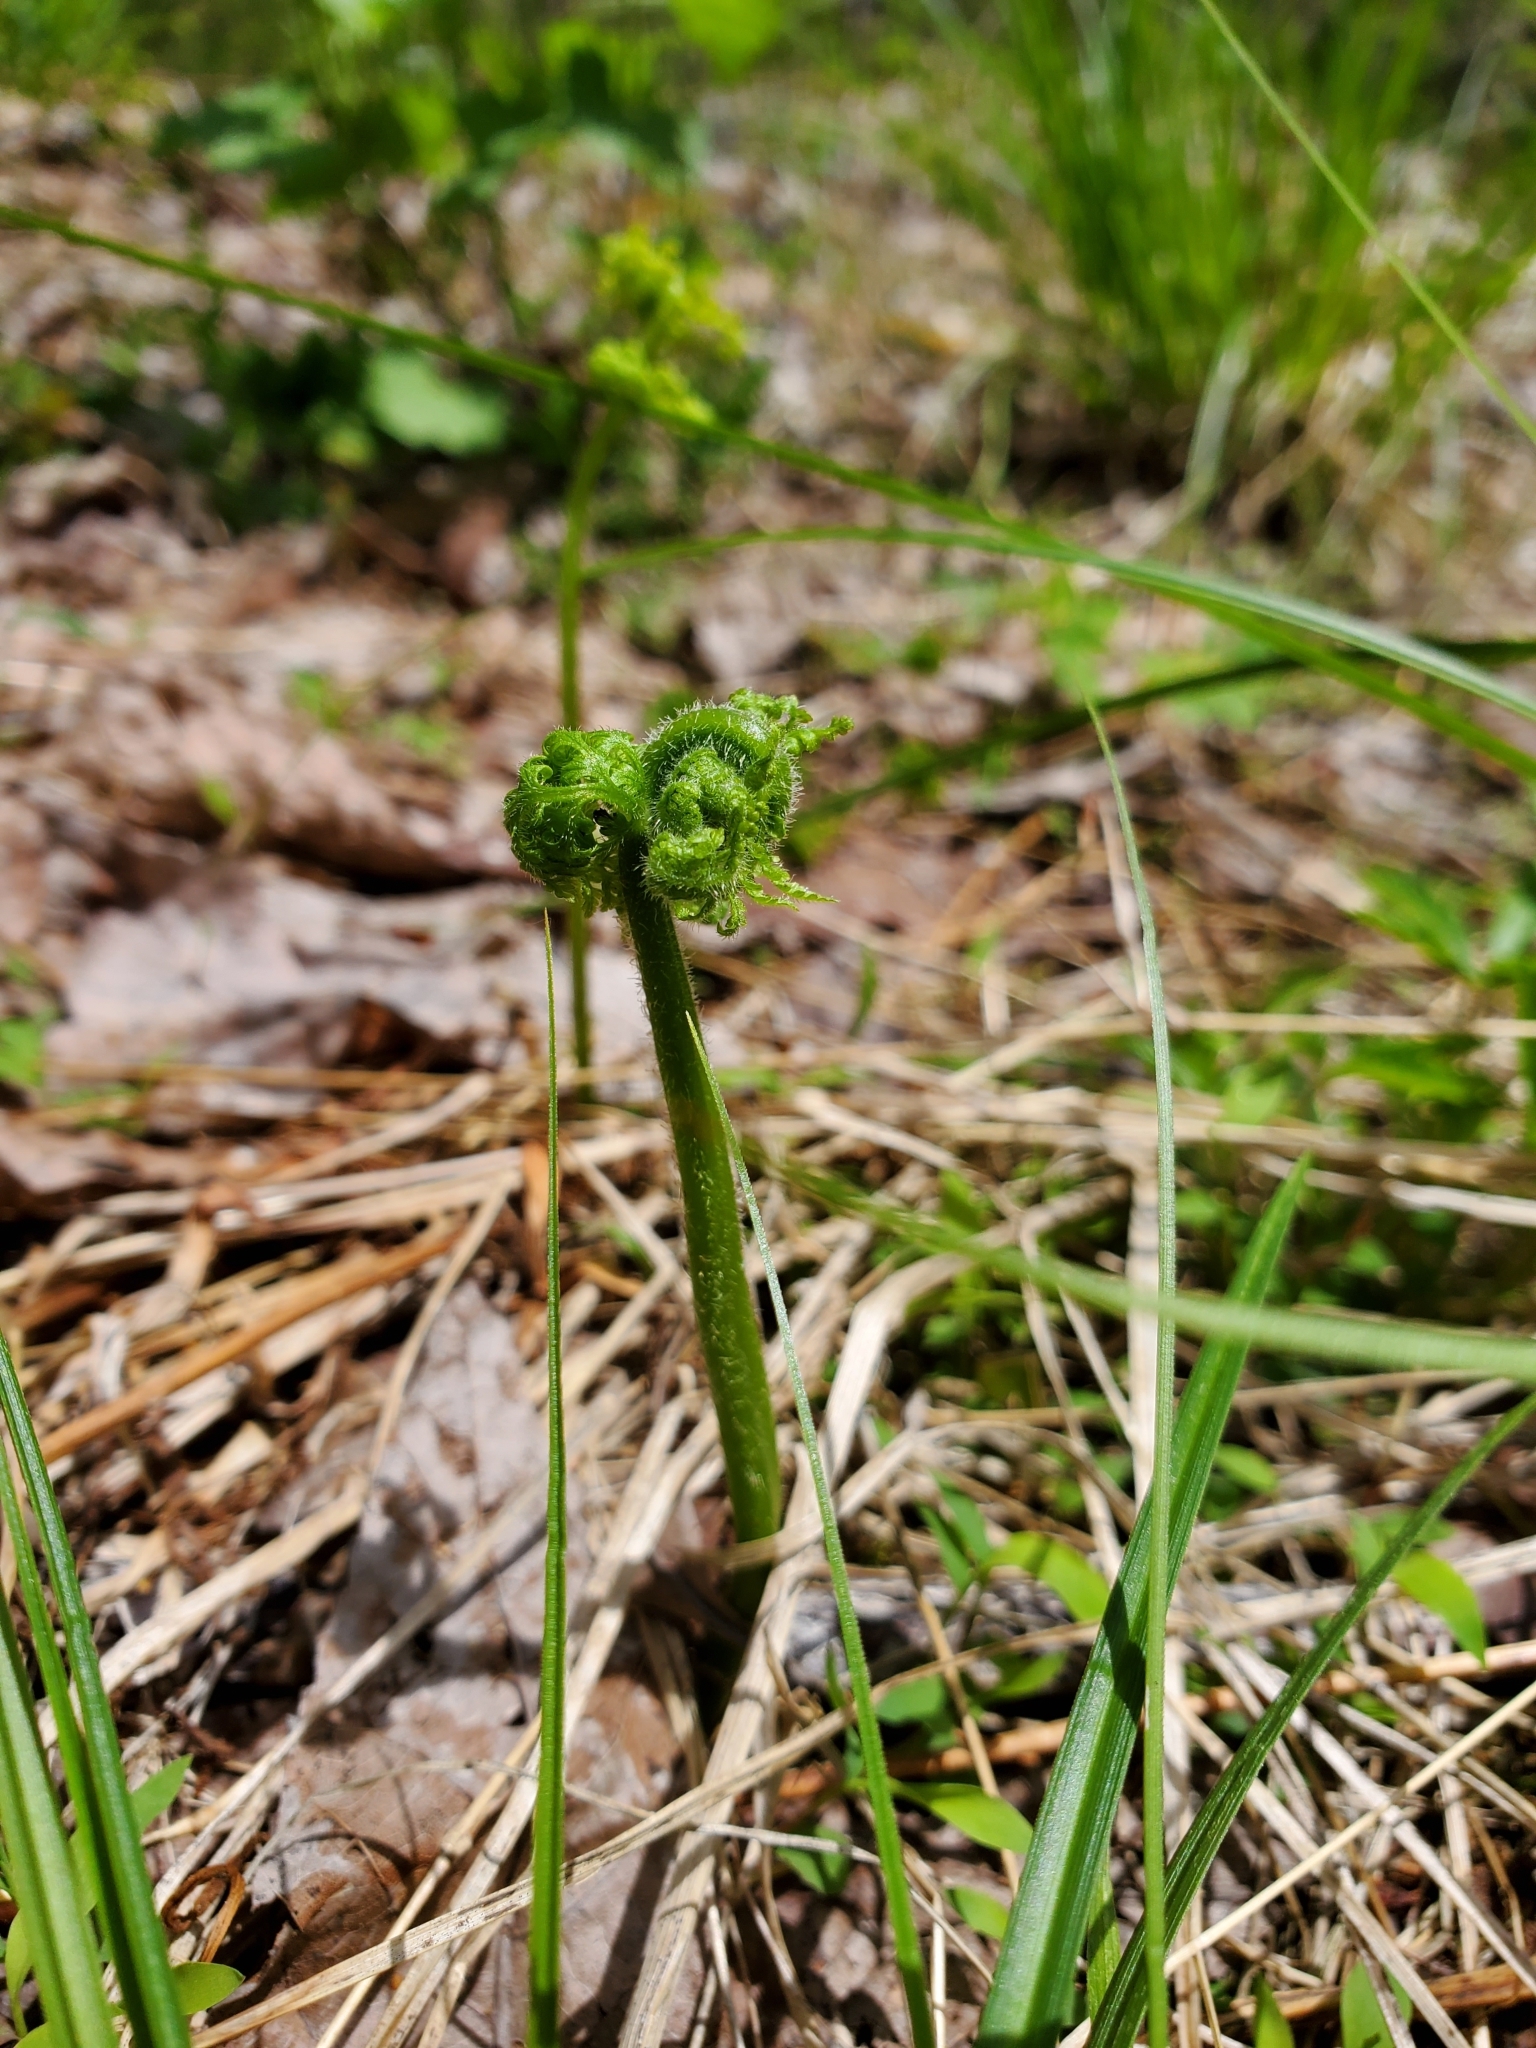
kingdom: Plantae
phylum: Tracheophyta
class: Polypodiopsida
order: Polypodiales
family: Dennstaedtiaceae
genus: Sitobolium
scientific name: Sitobolium punctilobum
